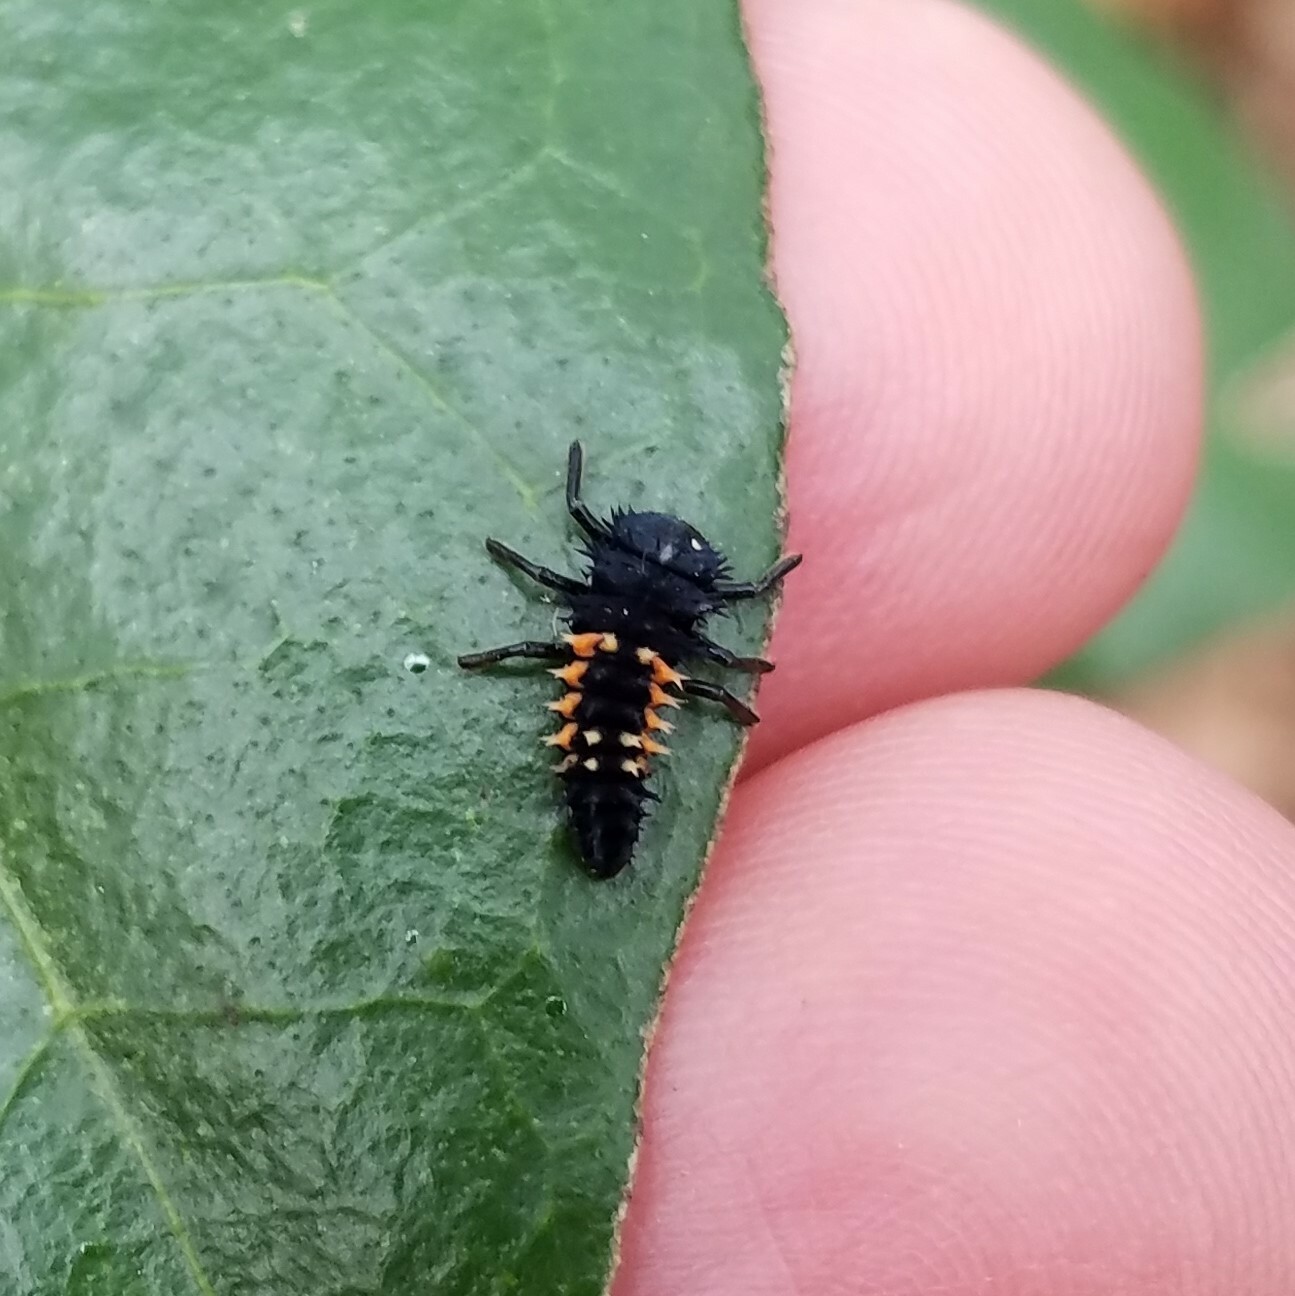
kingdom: Animalia
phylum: Arthropoda
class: Insecta
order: Coleoptera
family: Coccinellidae
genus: Harmonia
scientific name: Harmonia axyridis
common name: Harlequin ladybird
